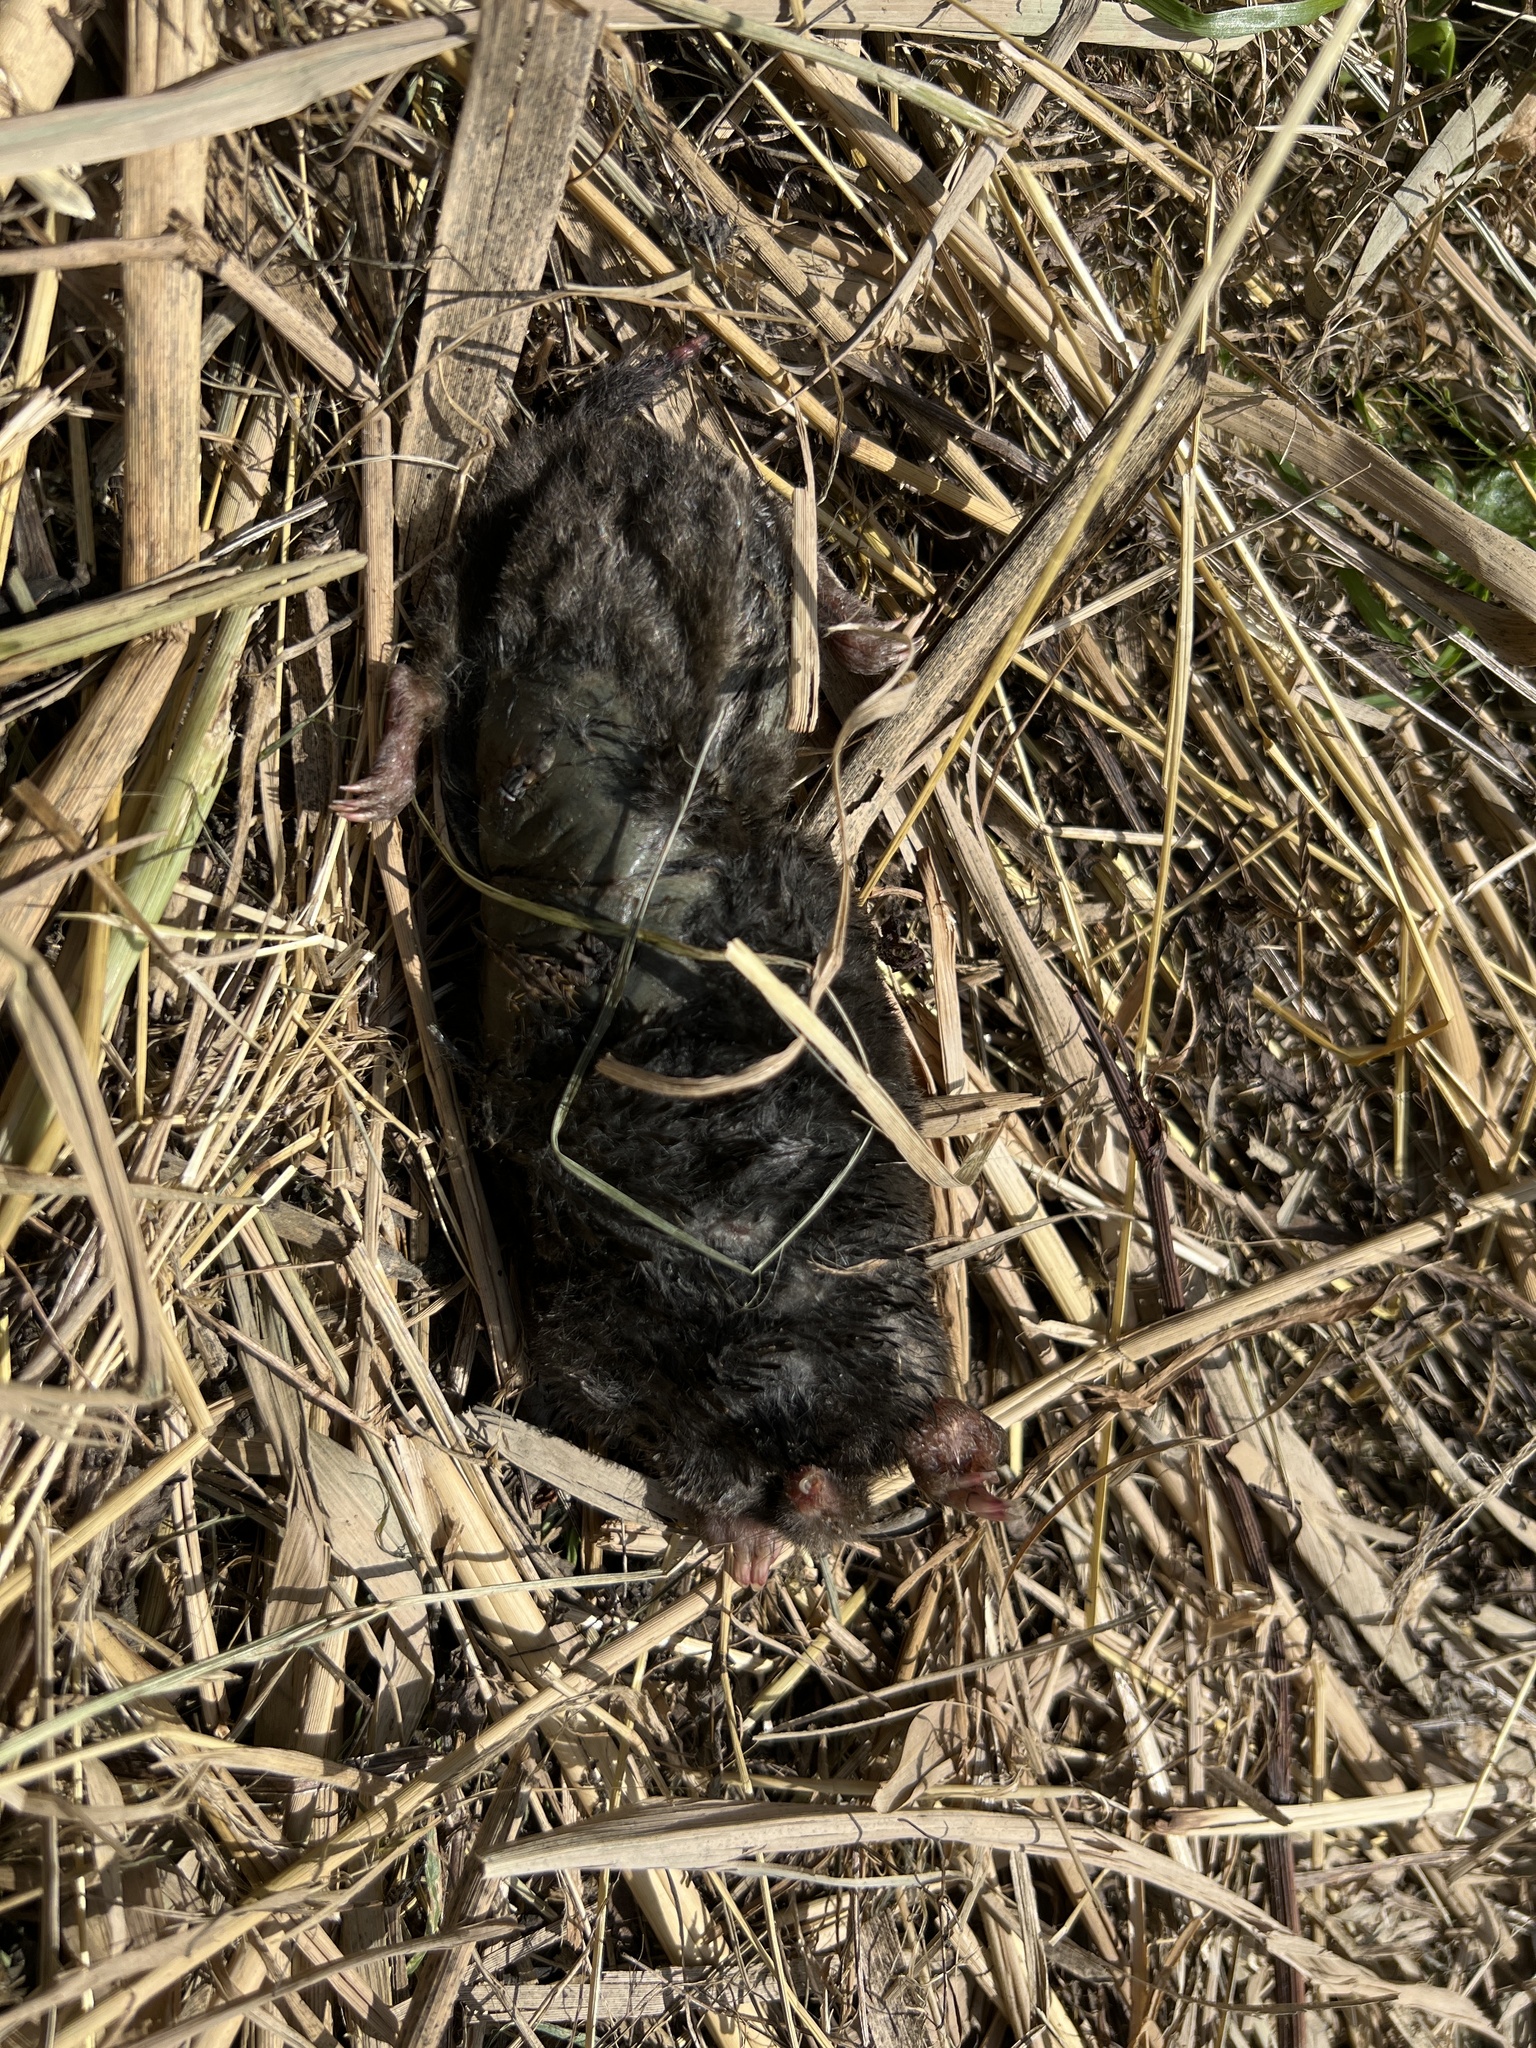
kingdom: Animalia
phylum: Chordata
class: Mammalia
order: Soricomorpha
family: Talpidae
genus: Talpa
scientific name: Talpa europaea
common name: European mole
